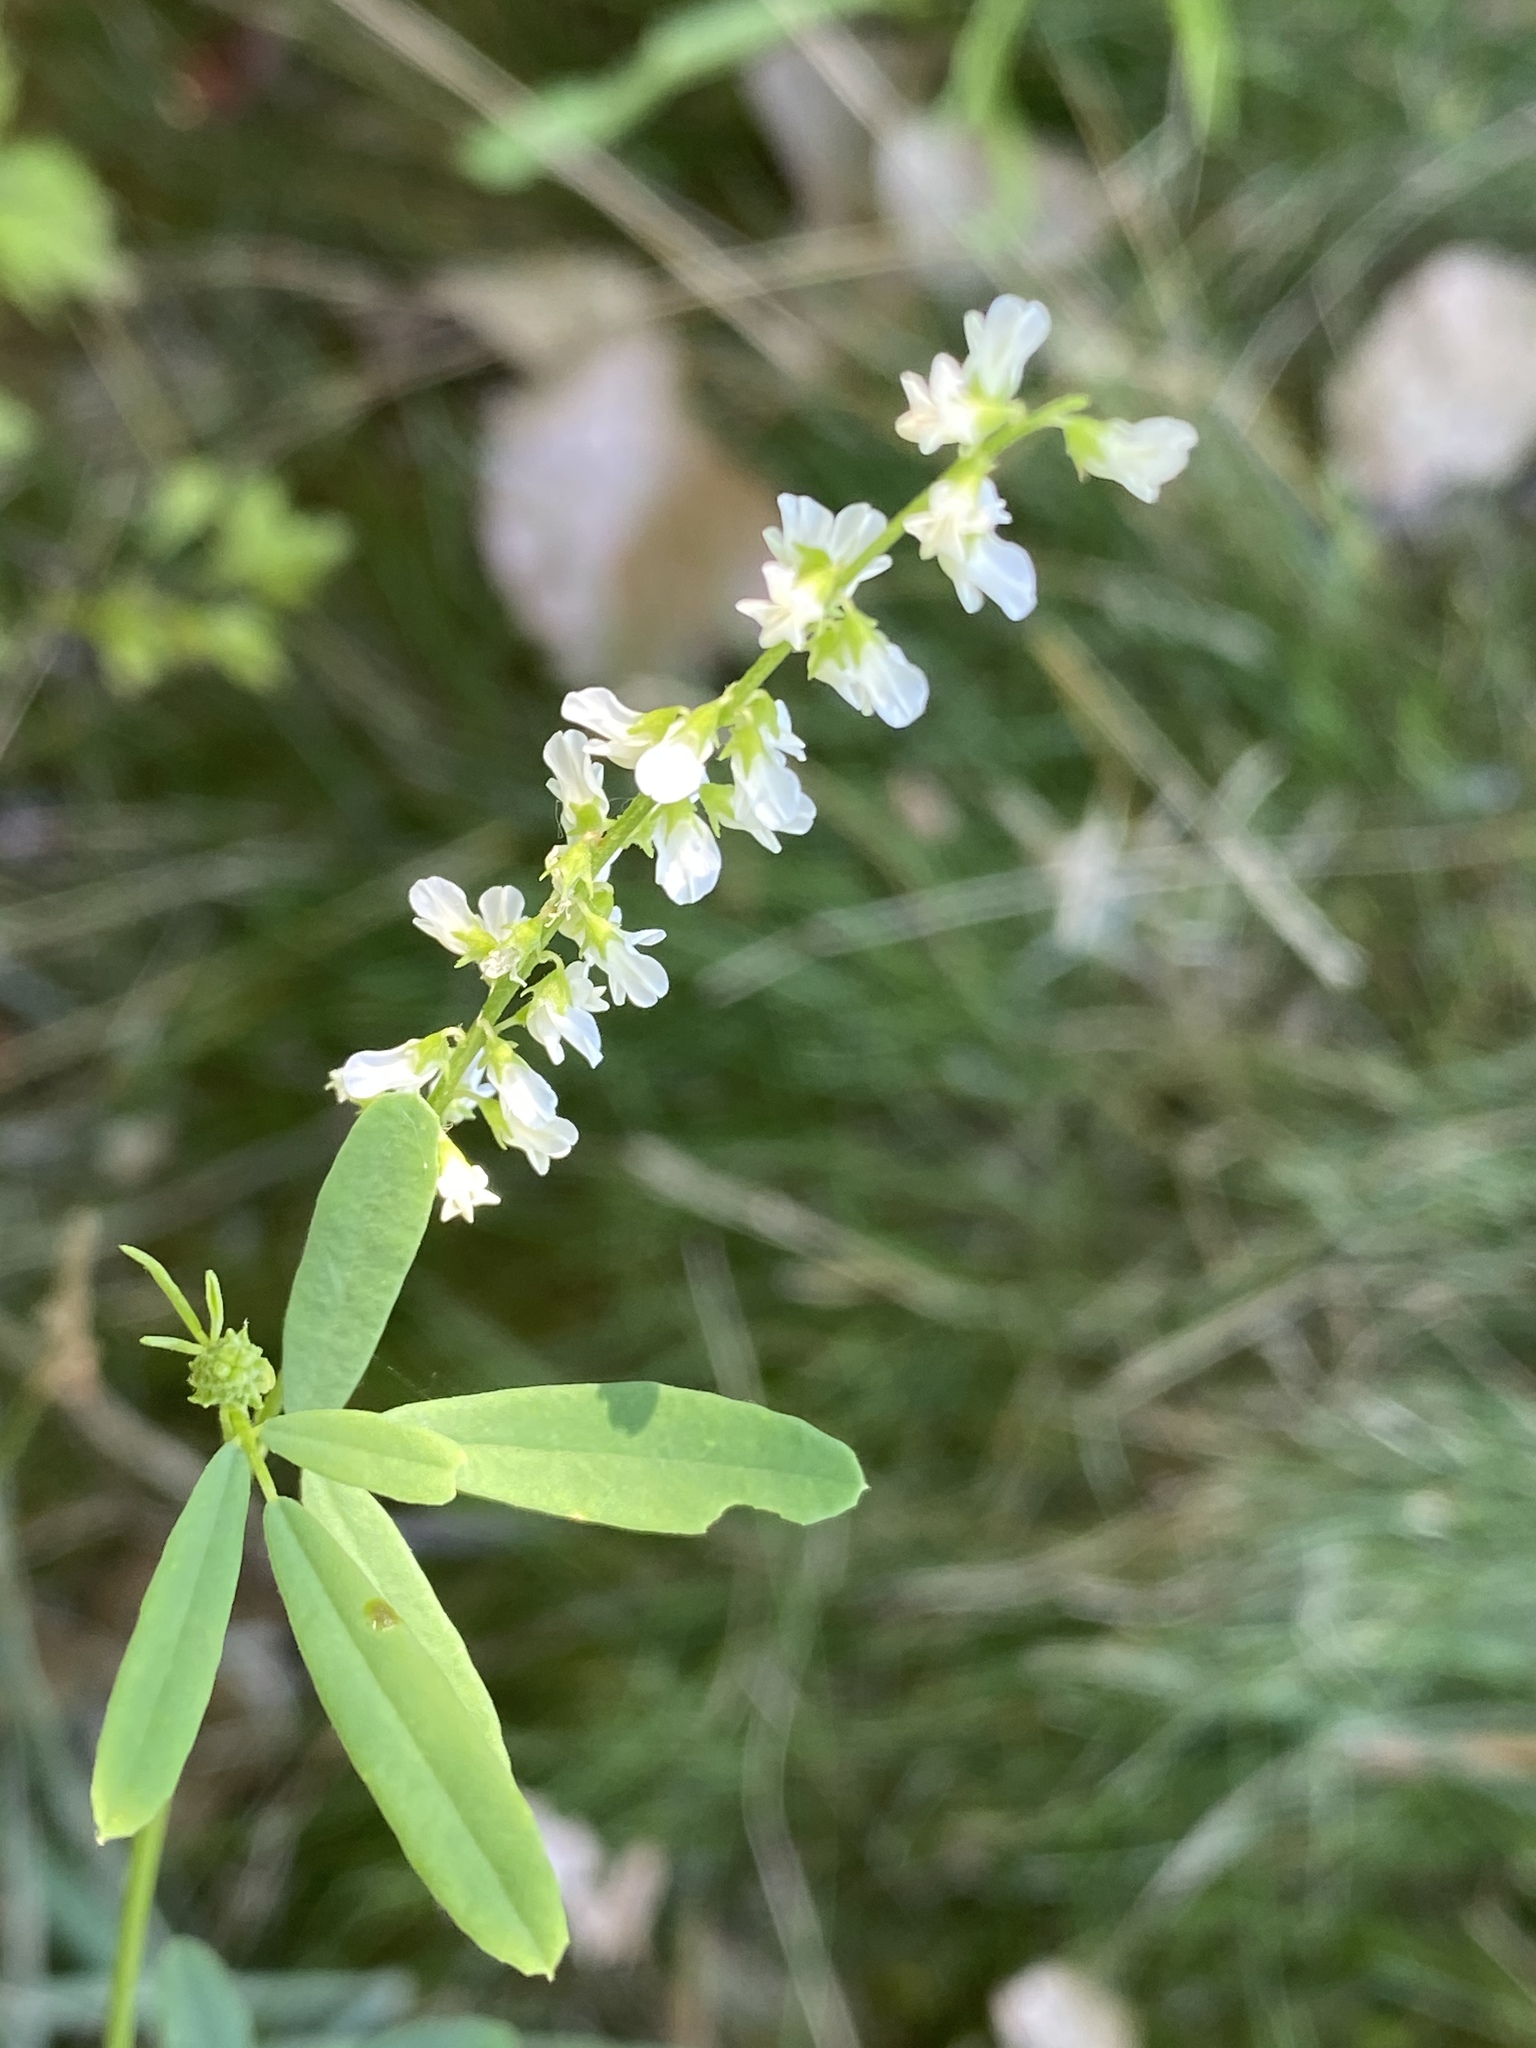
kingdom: Plantae
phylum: Tracheophyta
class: Magnoliopsida
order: Fabales
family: Fabaceae
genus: Melilotus
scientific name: Melilotus albus
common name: White melilot
